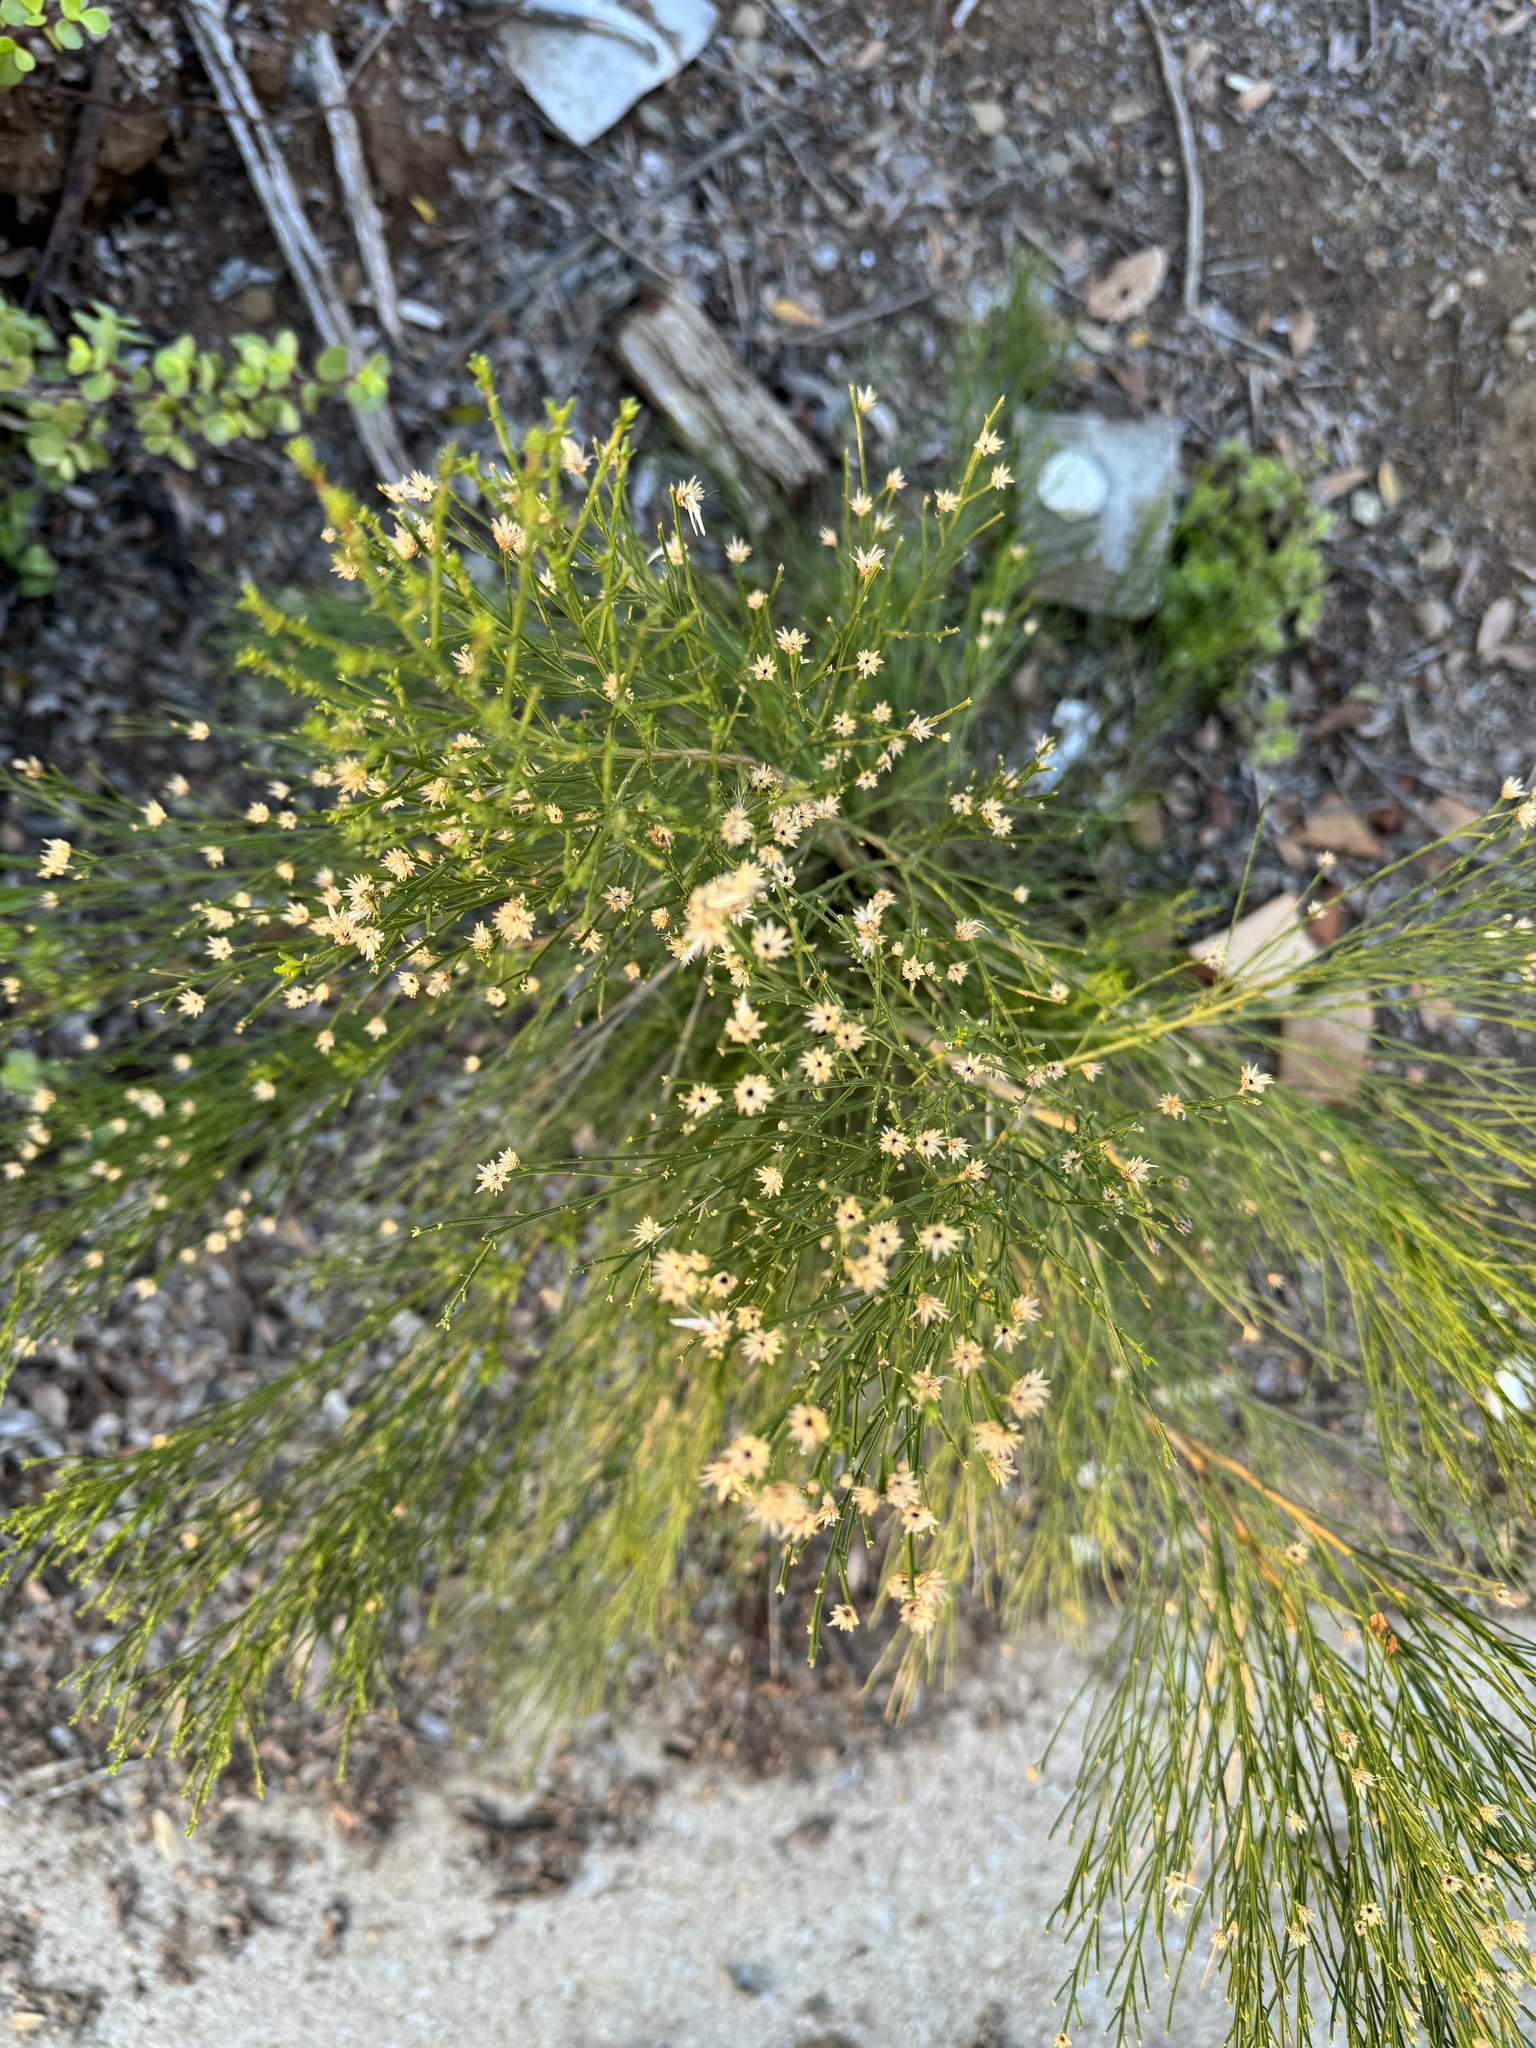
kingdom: Plantae
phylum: Tracheophyta
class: Magnoliopsida
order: Asterales
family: Asteraceae
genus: Baccharis
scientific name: Baccharis sarothroides
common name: Desert-broom
